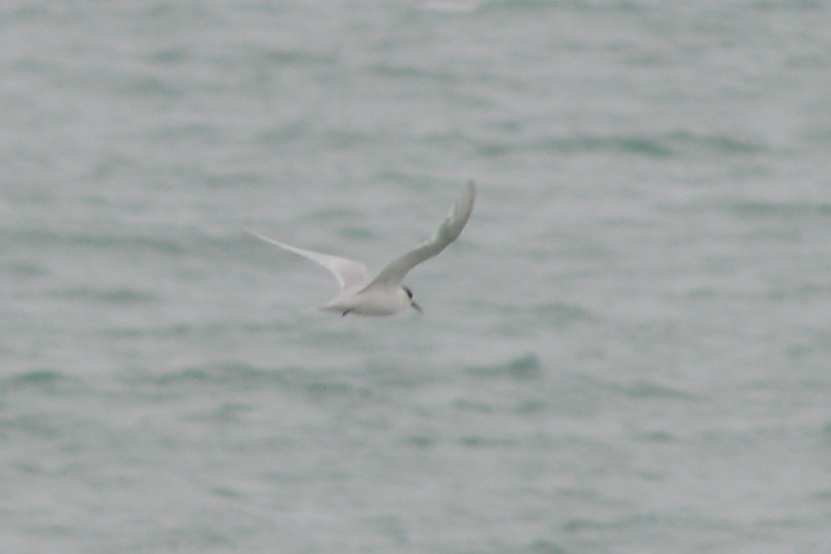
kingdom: Animalia
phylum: Chordata
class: Aves
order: Charadriiformes
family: Laridae
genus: Sterna
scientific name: Sterna striata
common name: White-fronted tern
